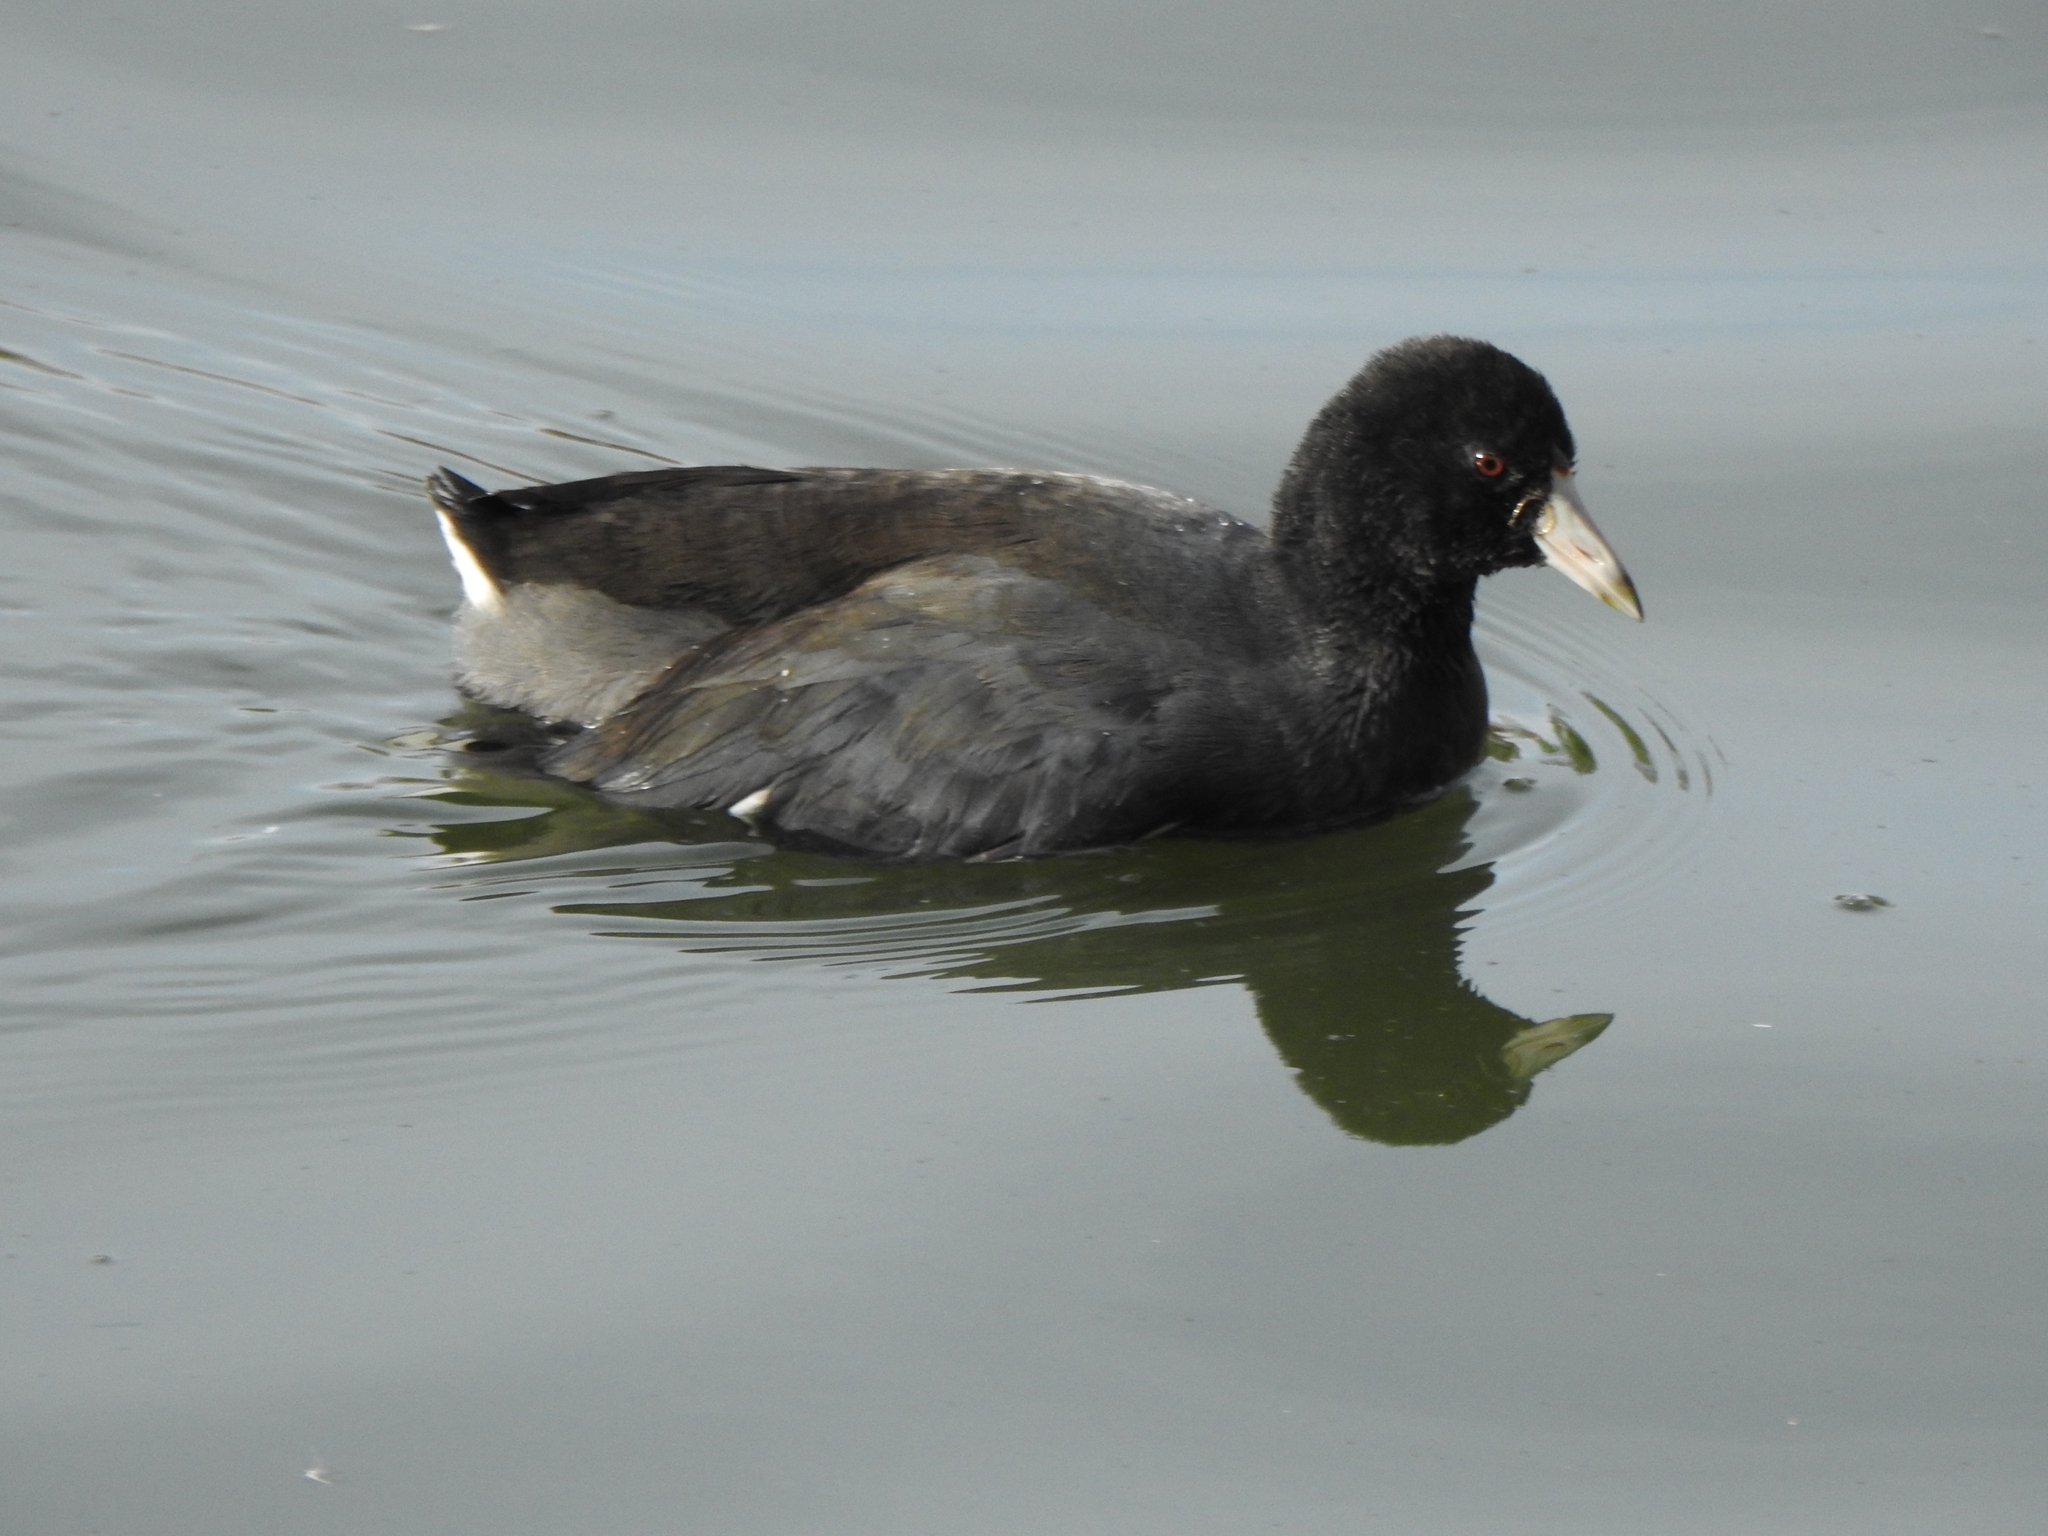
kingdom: Animalia
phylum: Chordata
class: Aves
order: Gruiformes
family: Rallidae
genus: Fulica
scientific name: Fulica americana
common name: American coot
